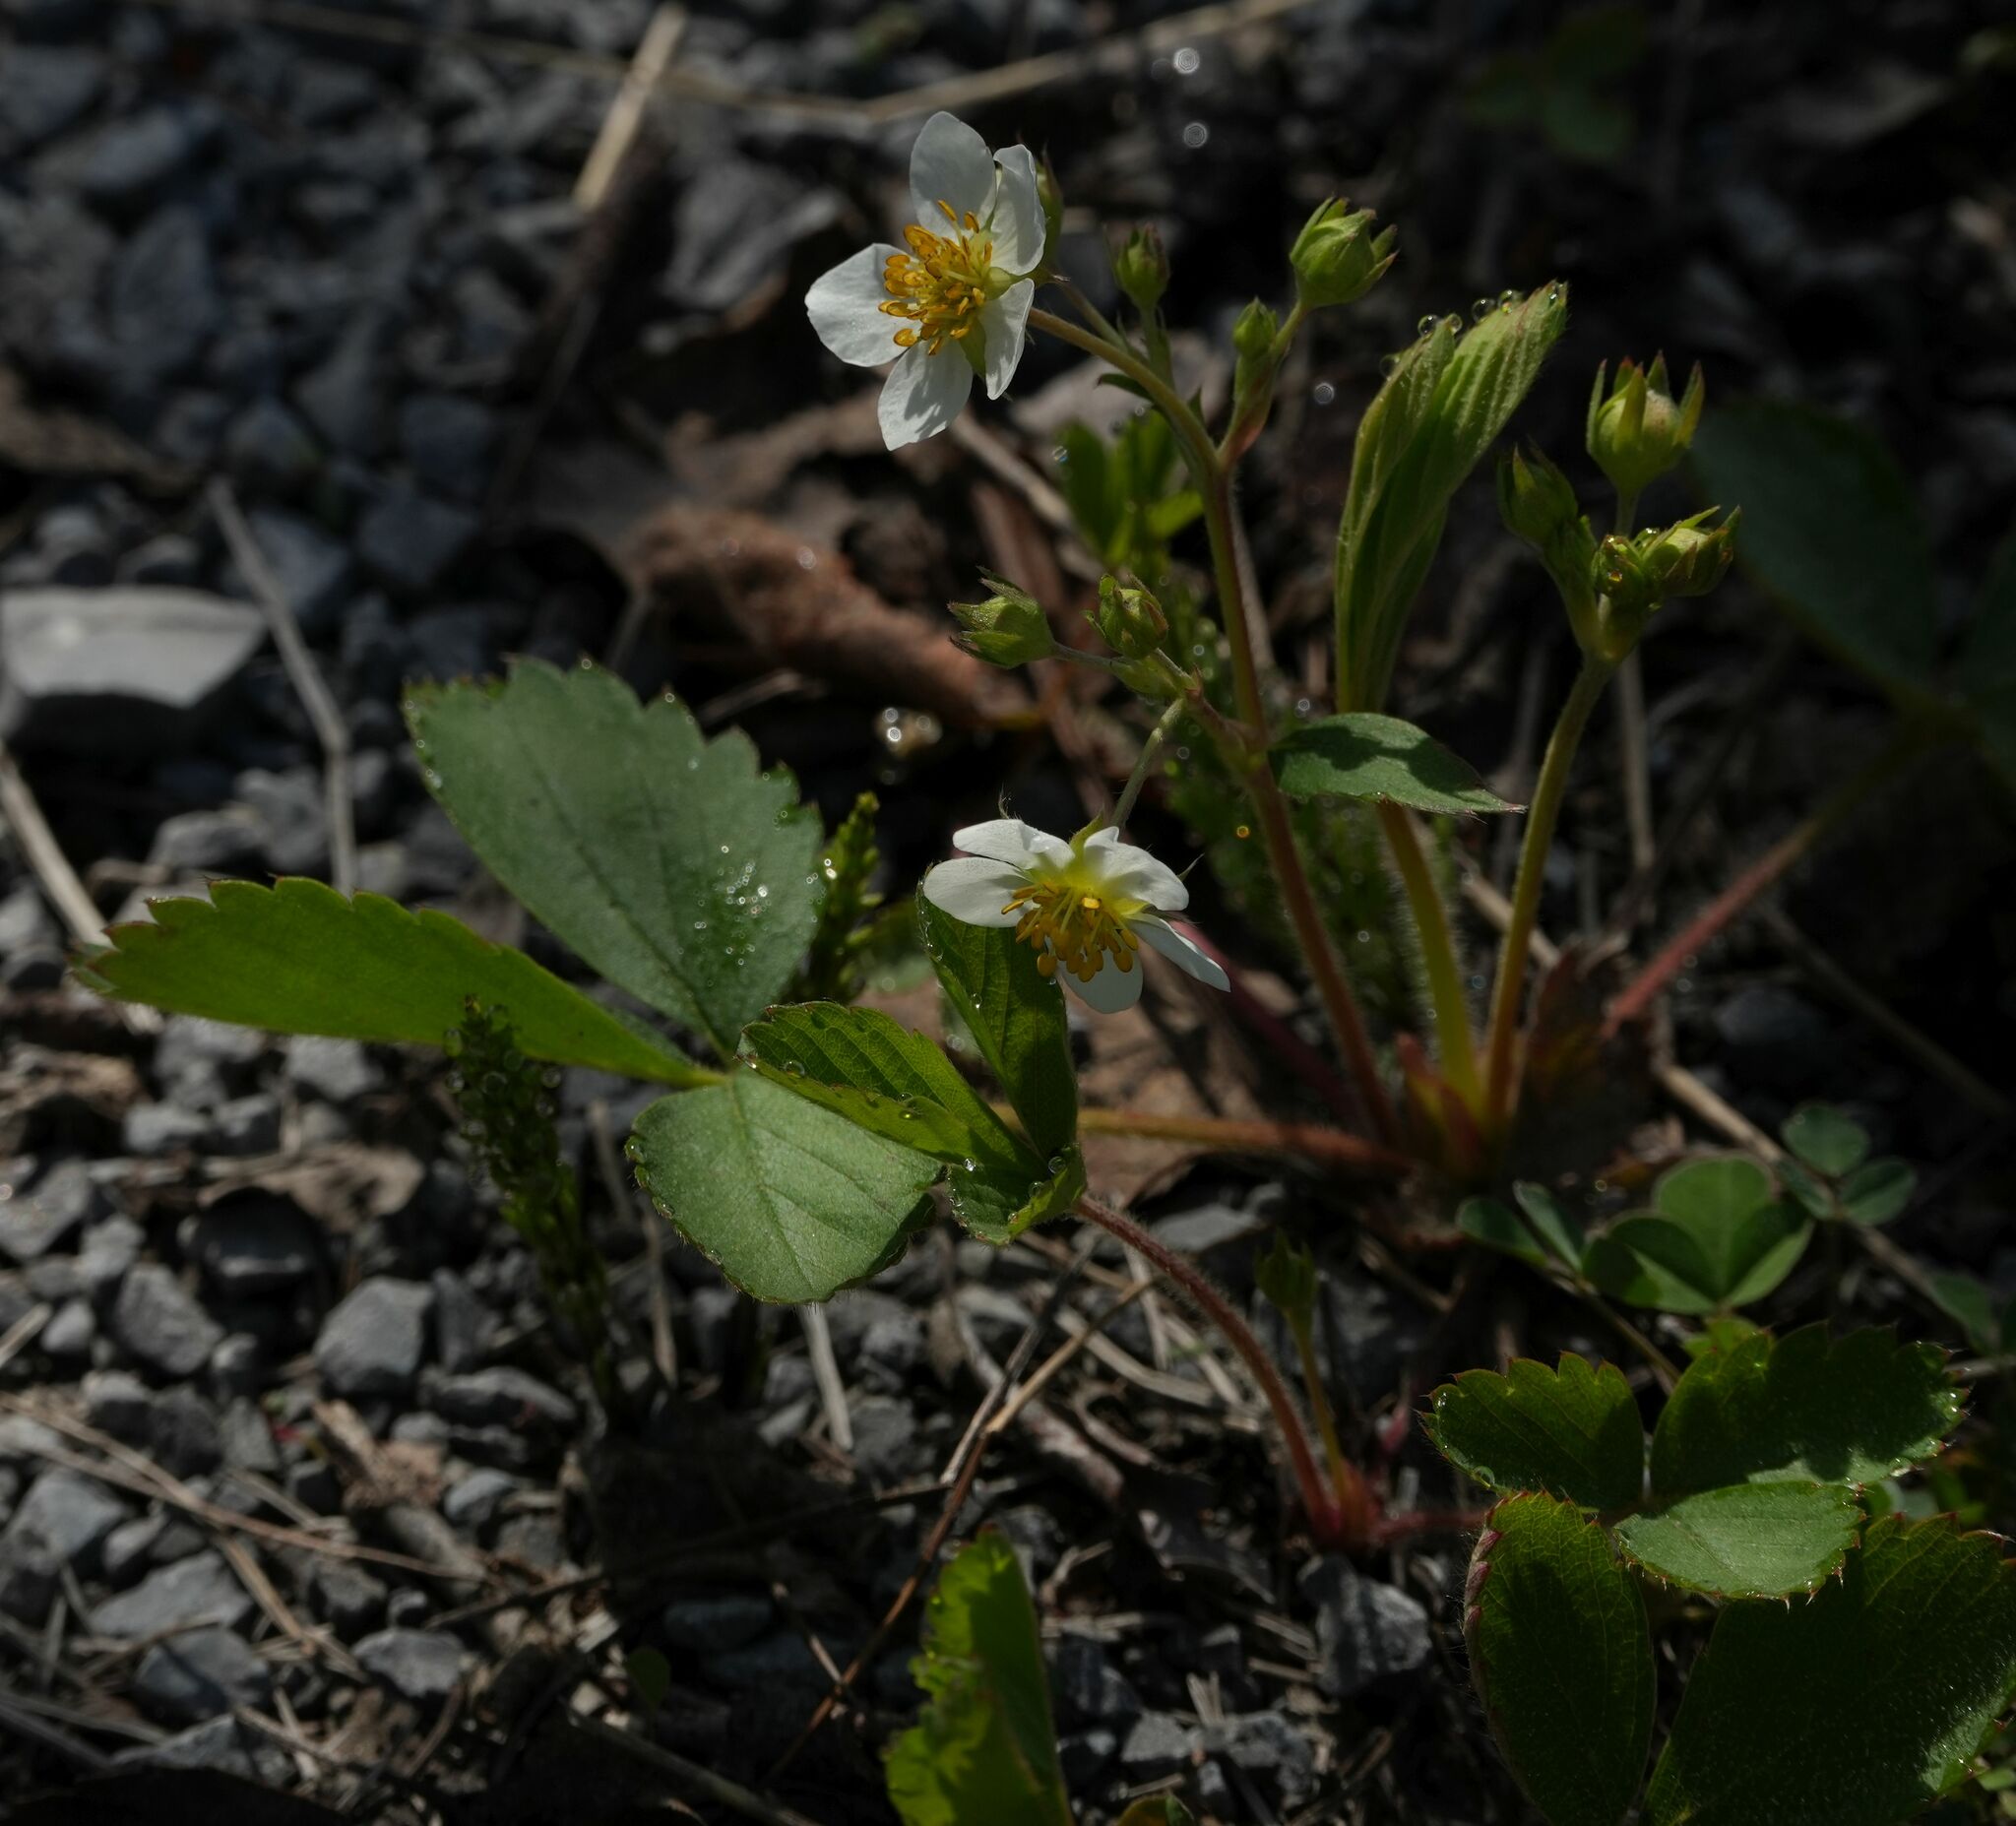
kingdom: Plantae
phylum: Tracheophyta
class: Magnoliopsida
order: Rosales
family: Rosaceae
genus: Fragaria
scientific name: Fragaria virginiana
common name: Thickleaved wild strawberry
